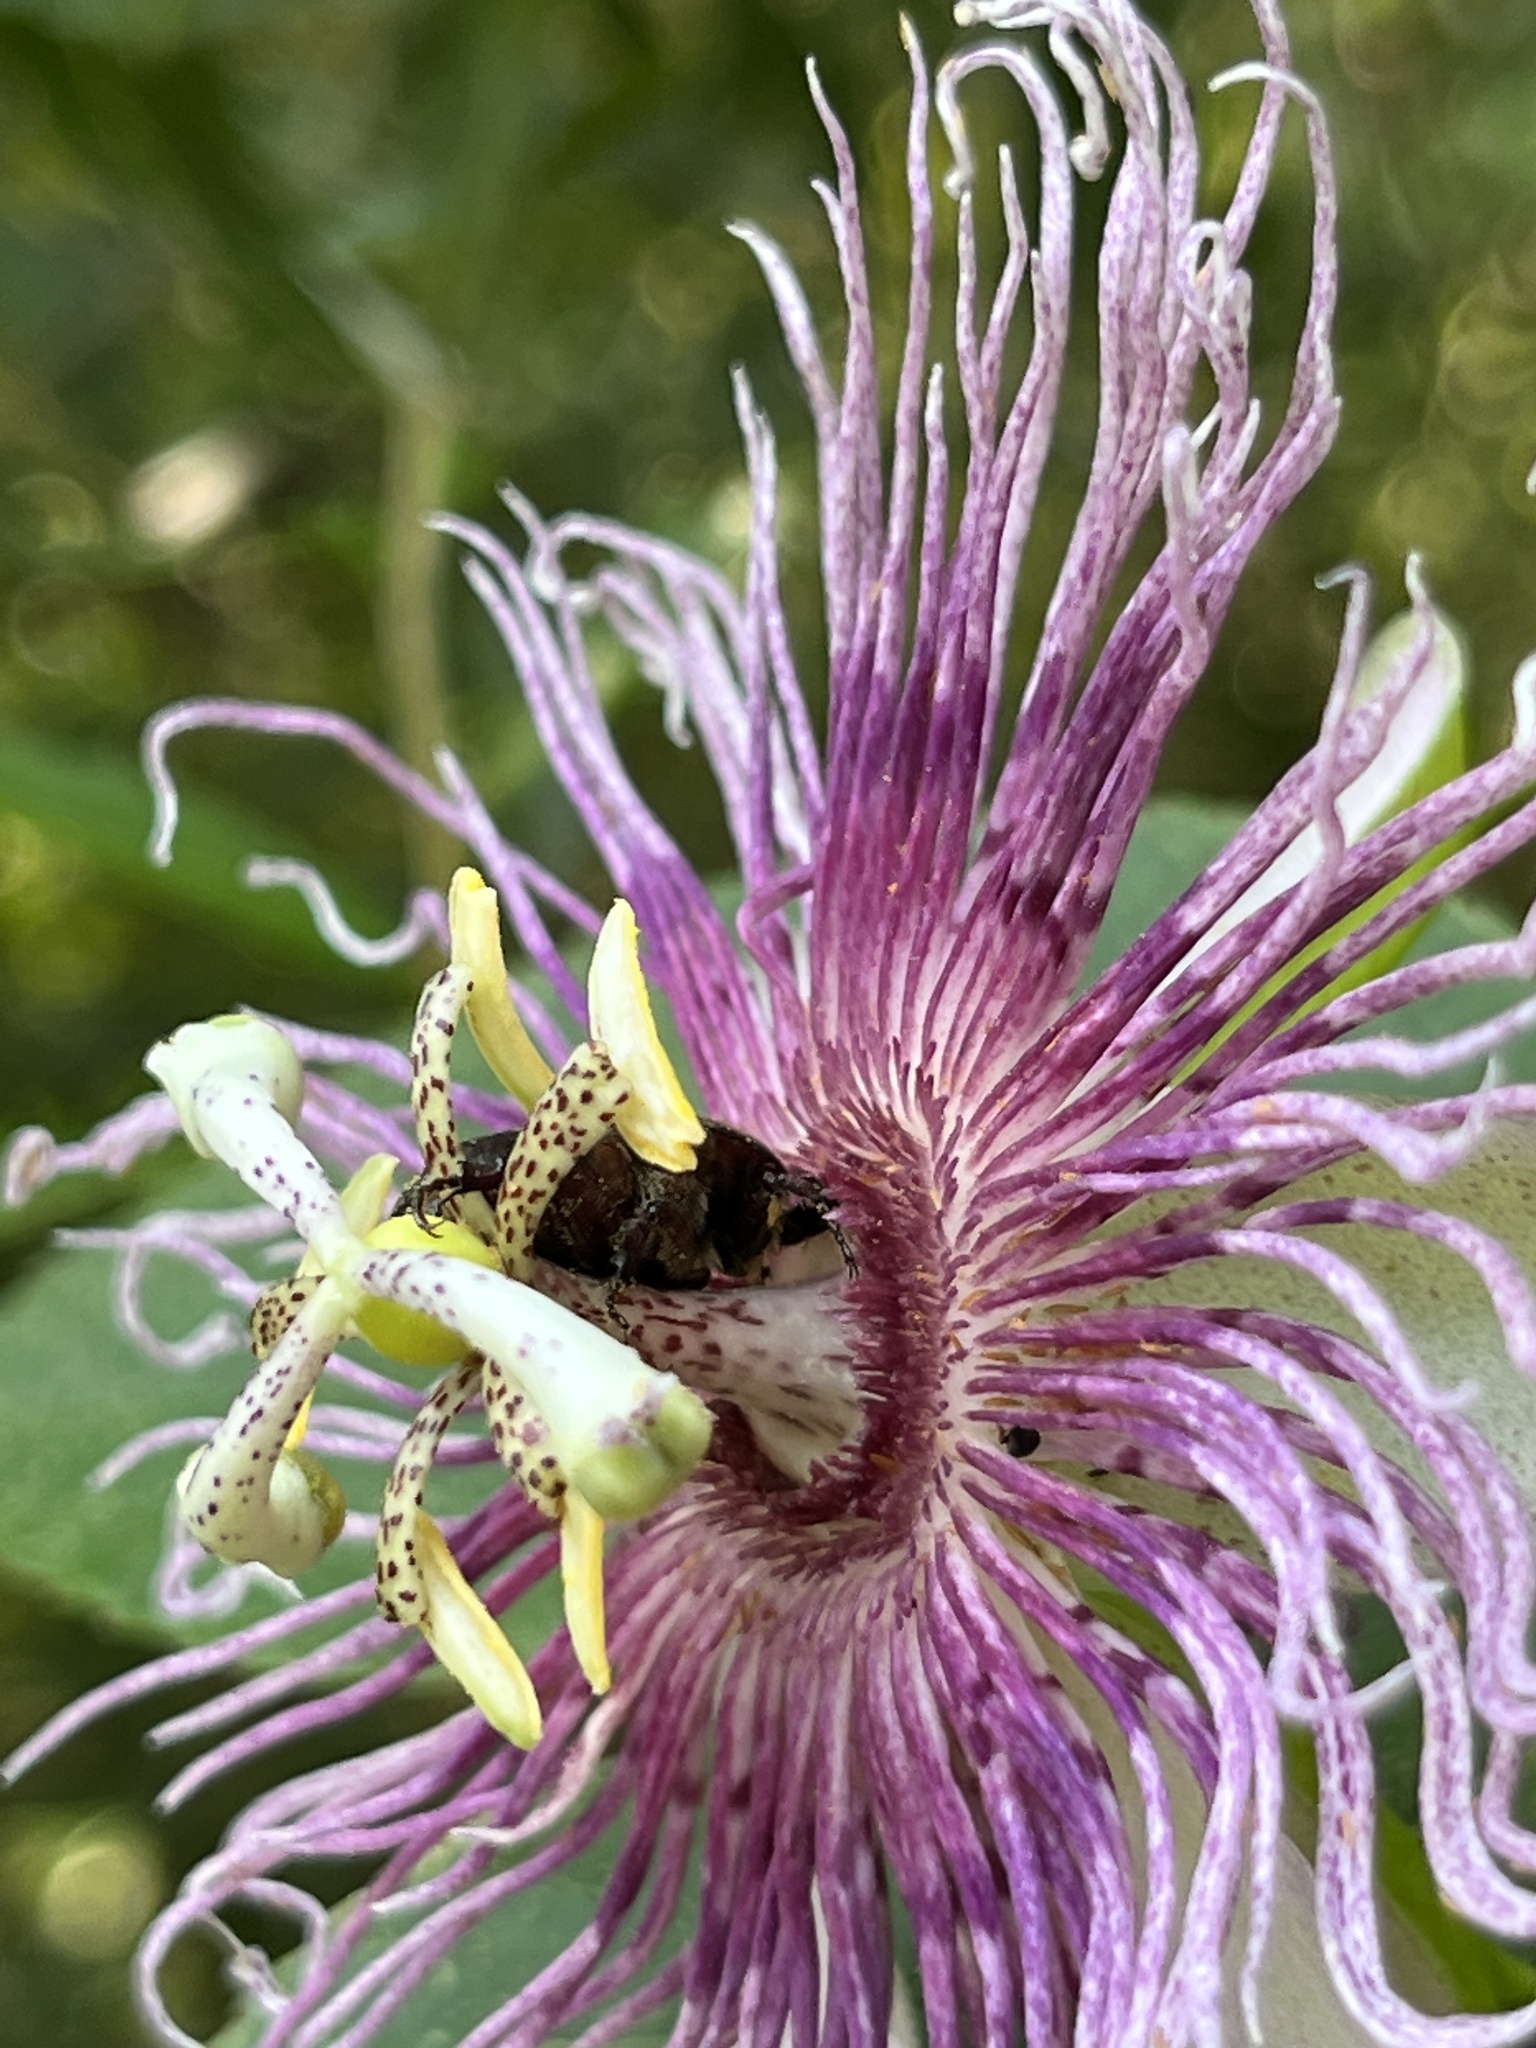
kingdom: Animalia
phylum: Arthropoda
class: Insecta
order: Coleoptera
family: Scarabaeidae
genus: Euphoria
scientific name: Euphoria sepulcralis
